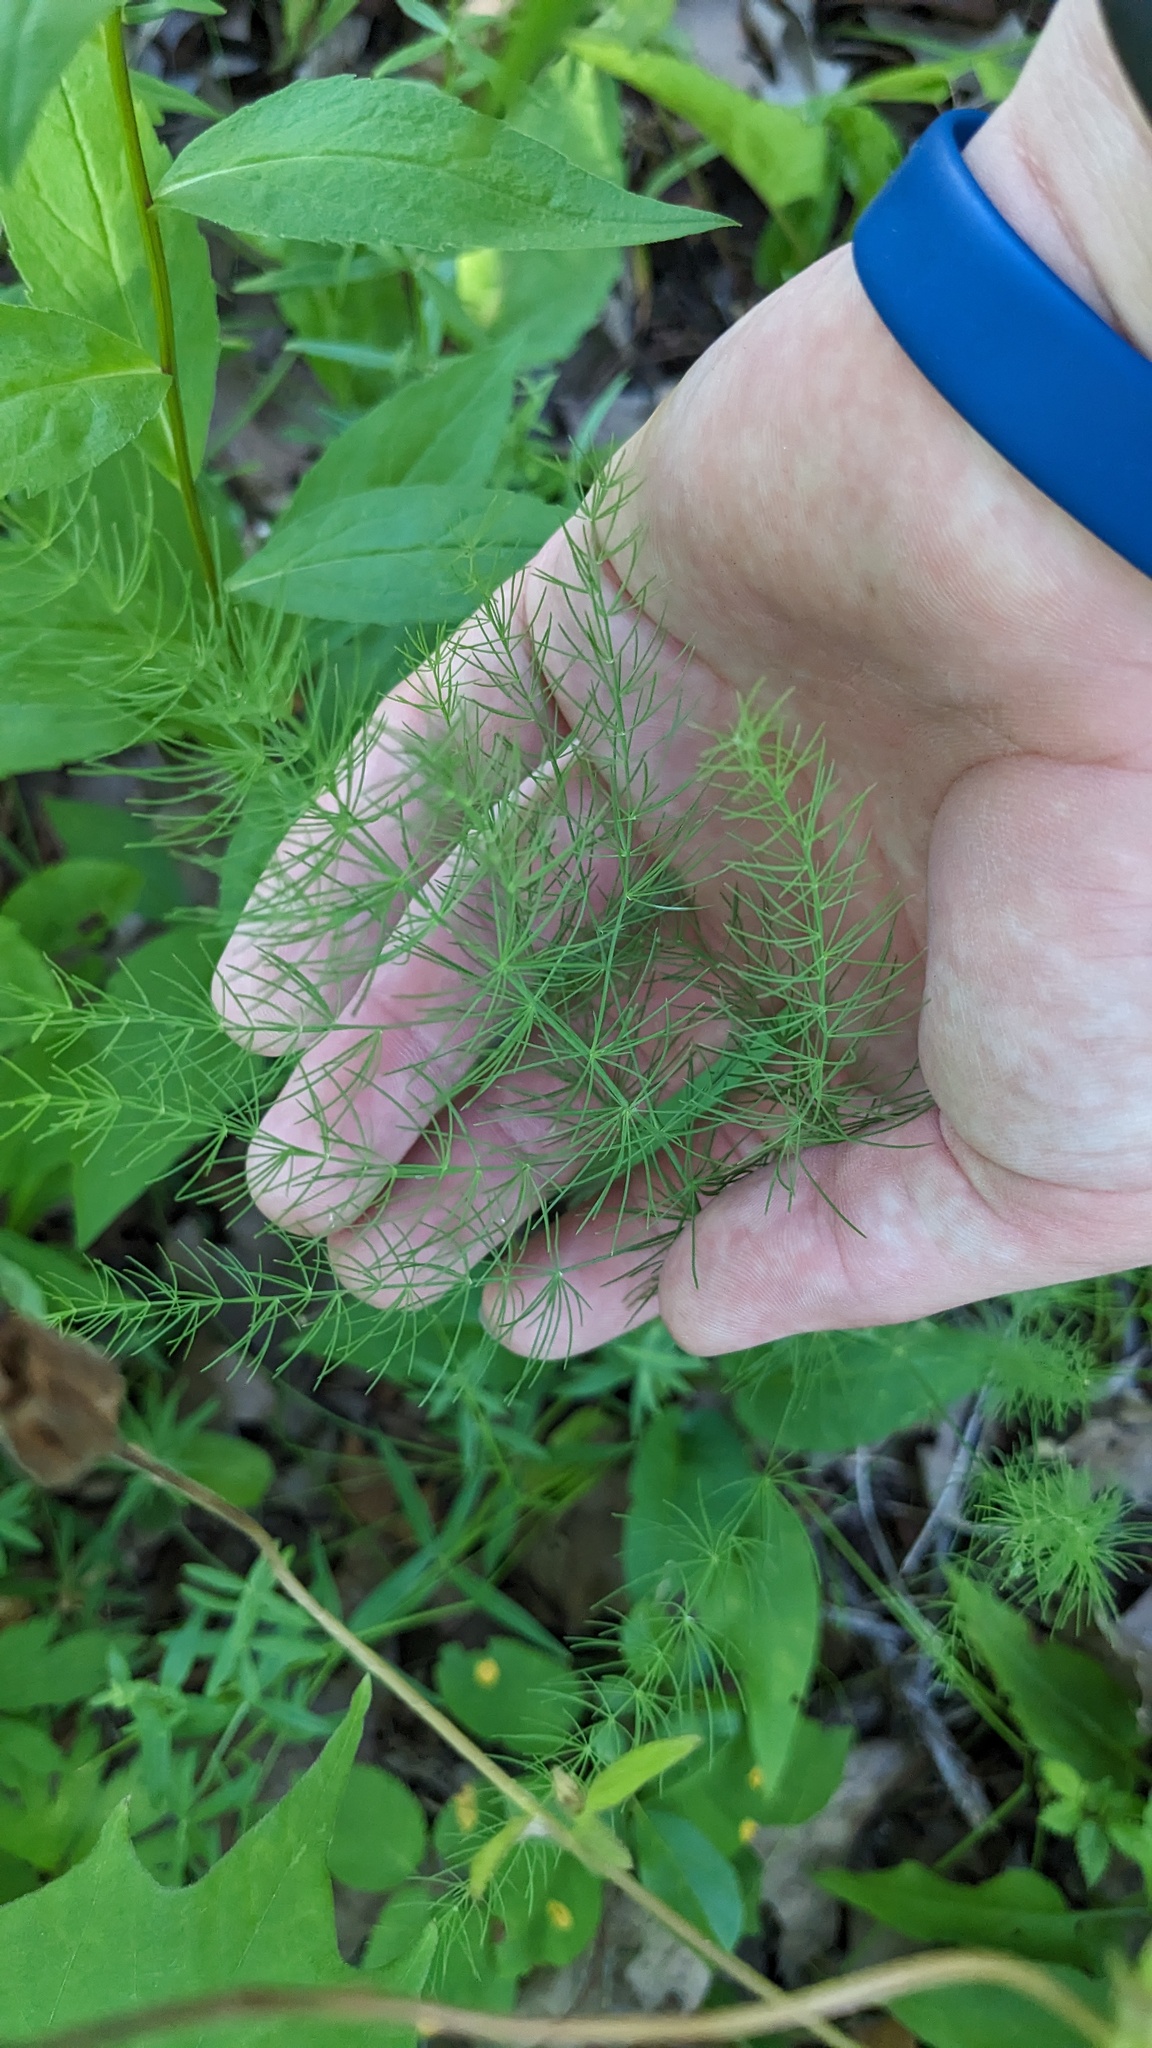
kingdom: Plantae
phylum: Tracheophyta
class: Liliopsida
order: Asparagales
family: Asparagaceae
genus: Asparagus
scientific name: Asparagus officinalis
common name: Garden asparagus
